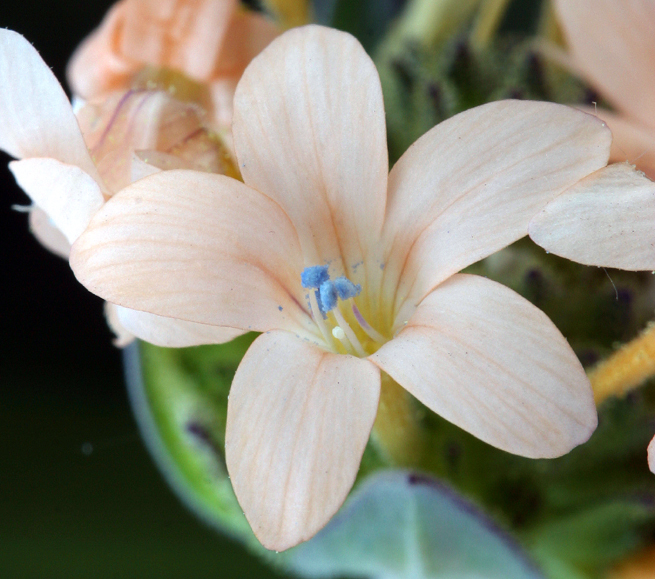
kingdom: Plantae
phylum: Tracheophyta
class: Magnoliopsida
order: Ericales
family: Polemoniaceae
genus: Collomia
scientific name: Collomia grandiflora
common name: California strawflower
